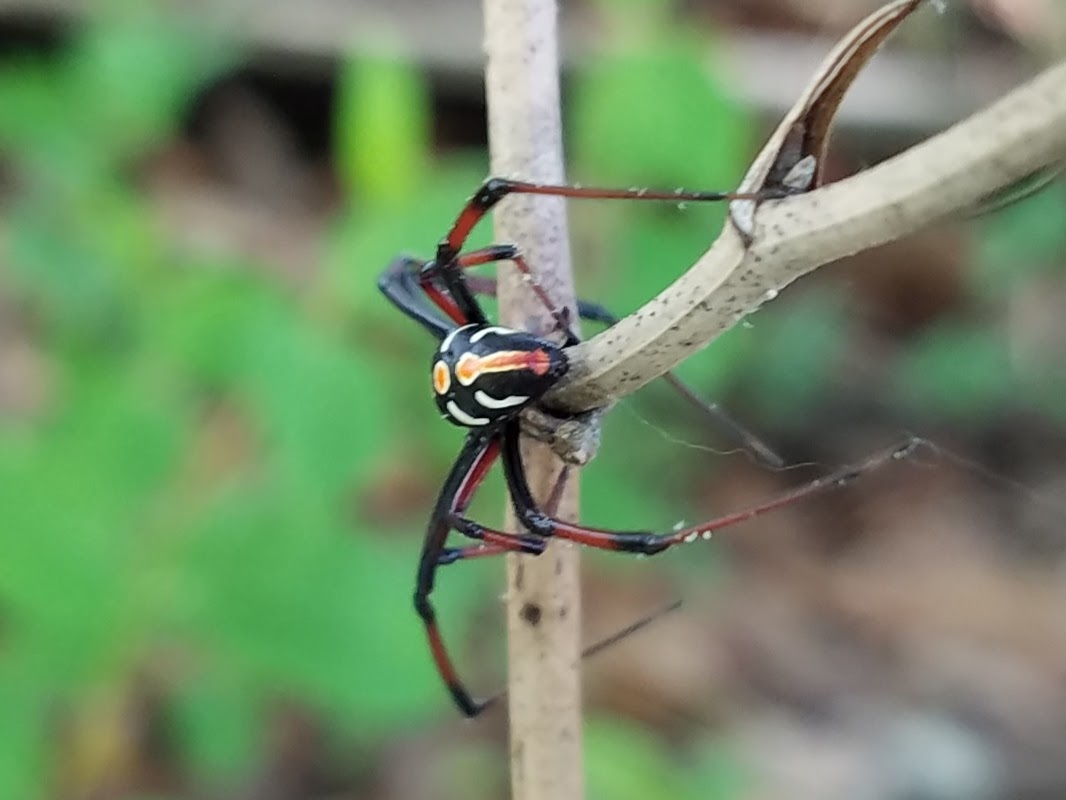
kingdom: Animalia
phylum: Arthropoda
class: Arachnida
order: Araneae
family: Theridiidae
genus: Latrodectus
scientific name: Latrodectus variolus
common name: Northern black widow
